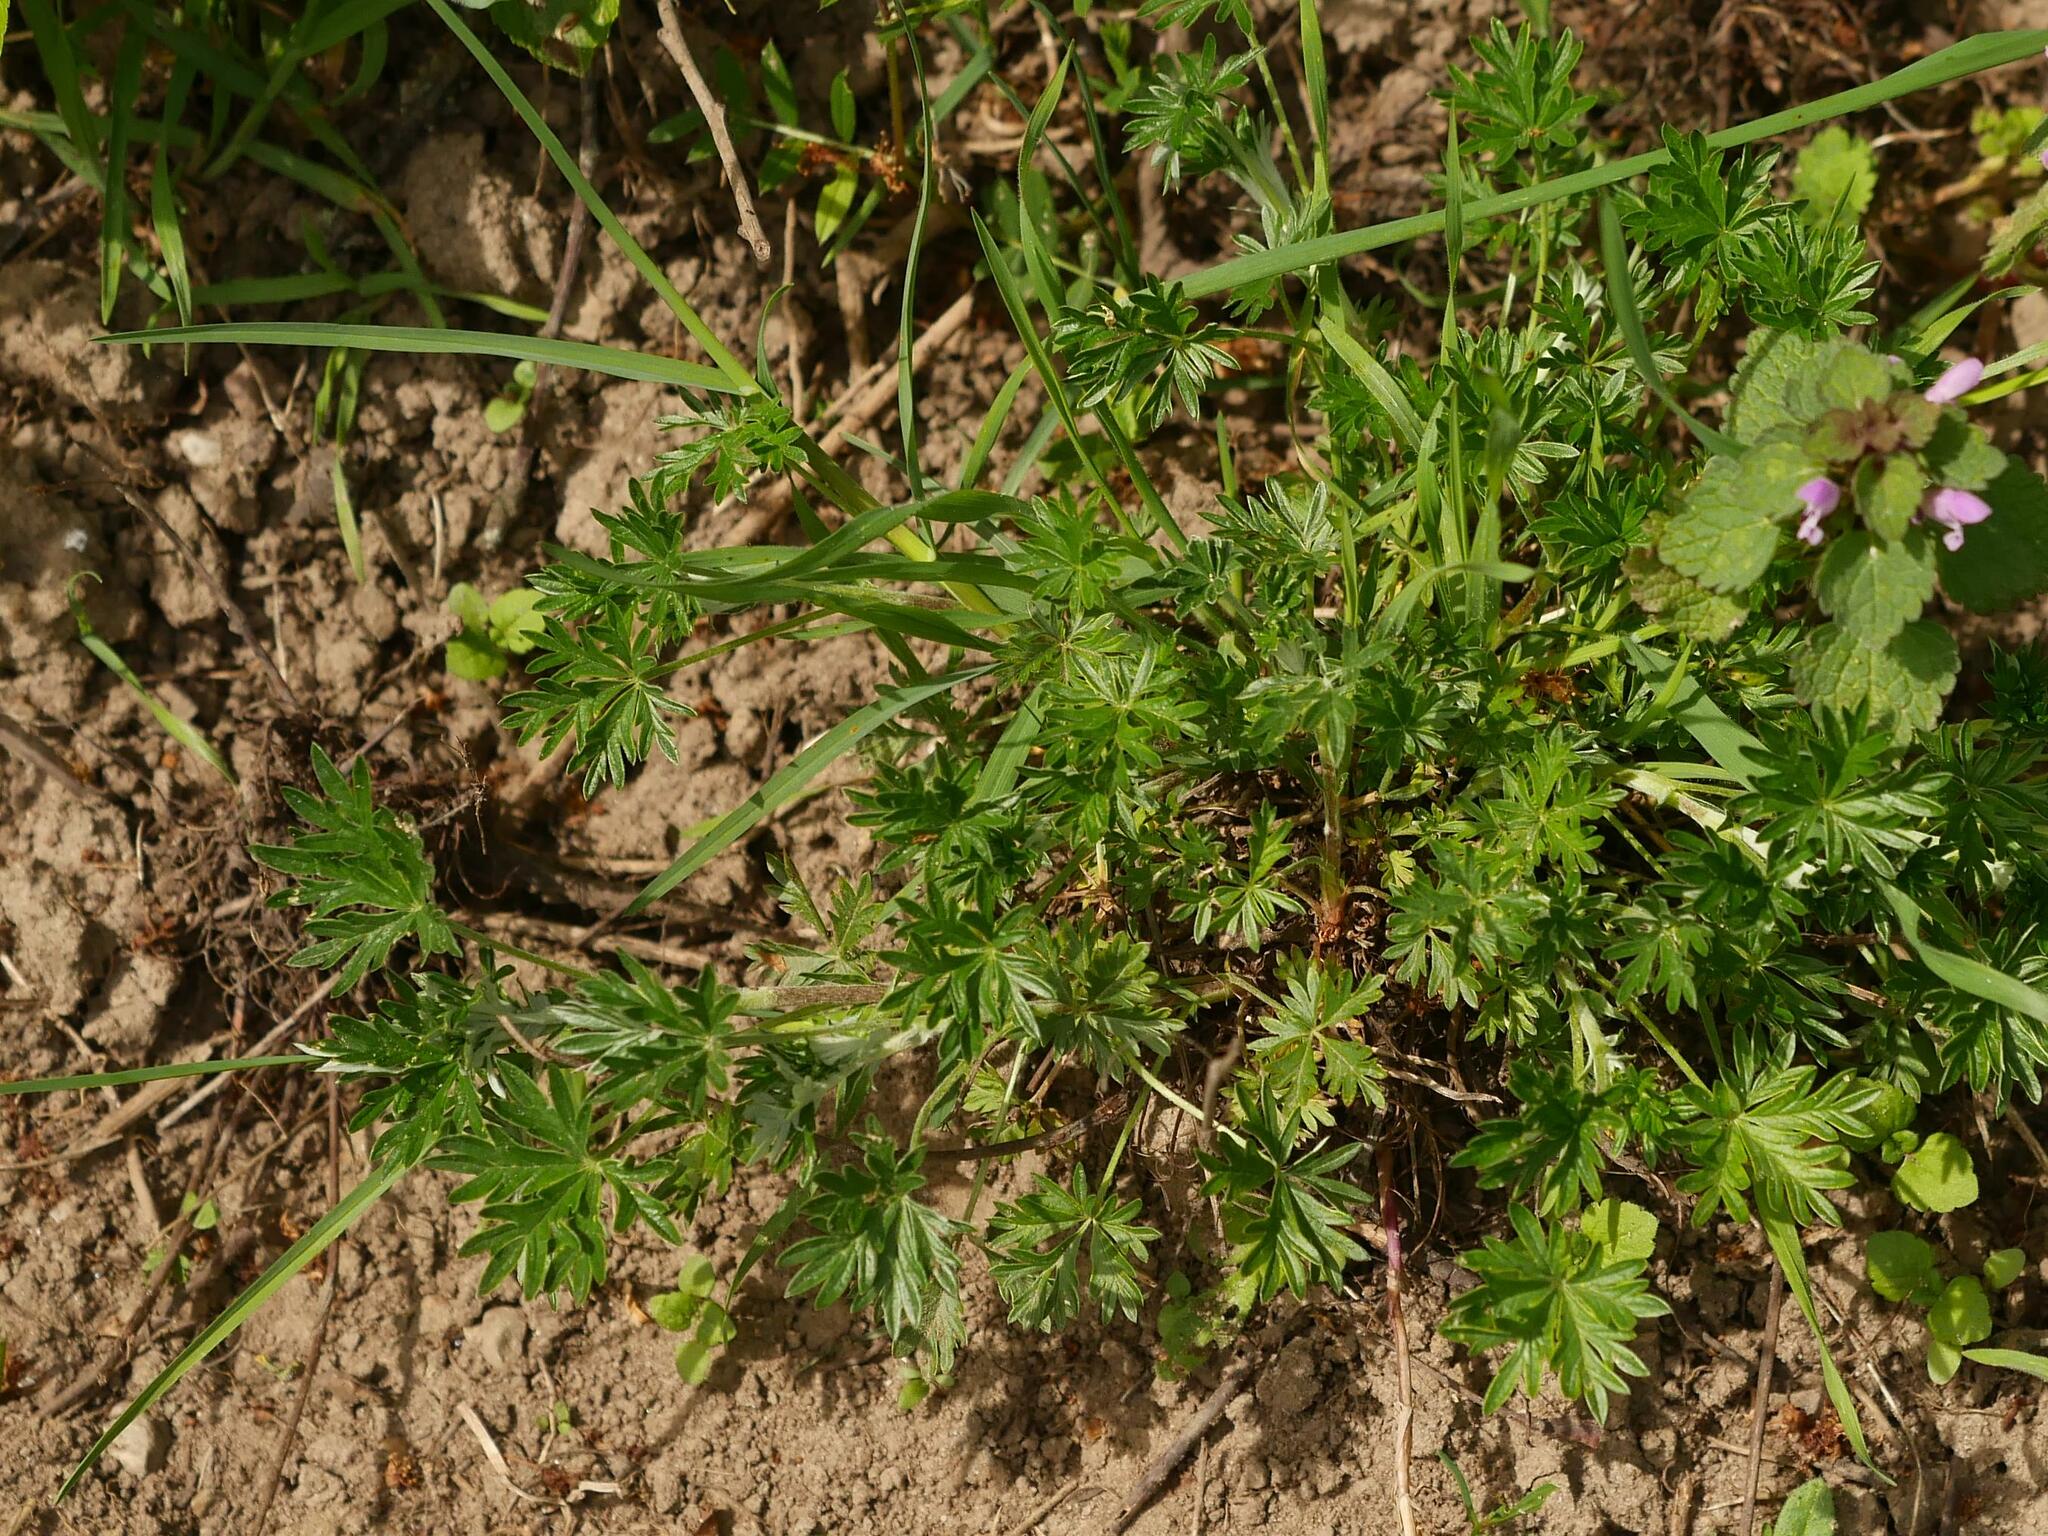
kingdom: Plantae
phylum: Tracheophyta
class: Magnoliopsida
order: Rosales
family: Rosaceae
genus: Potentilla
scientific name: Potentilla argentea
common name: Hoary cinquefoil
